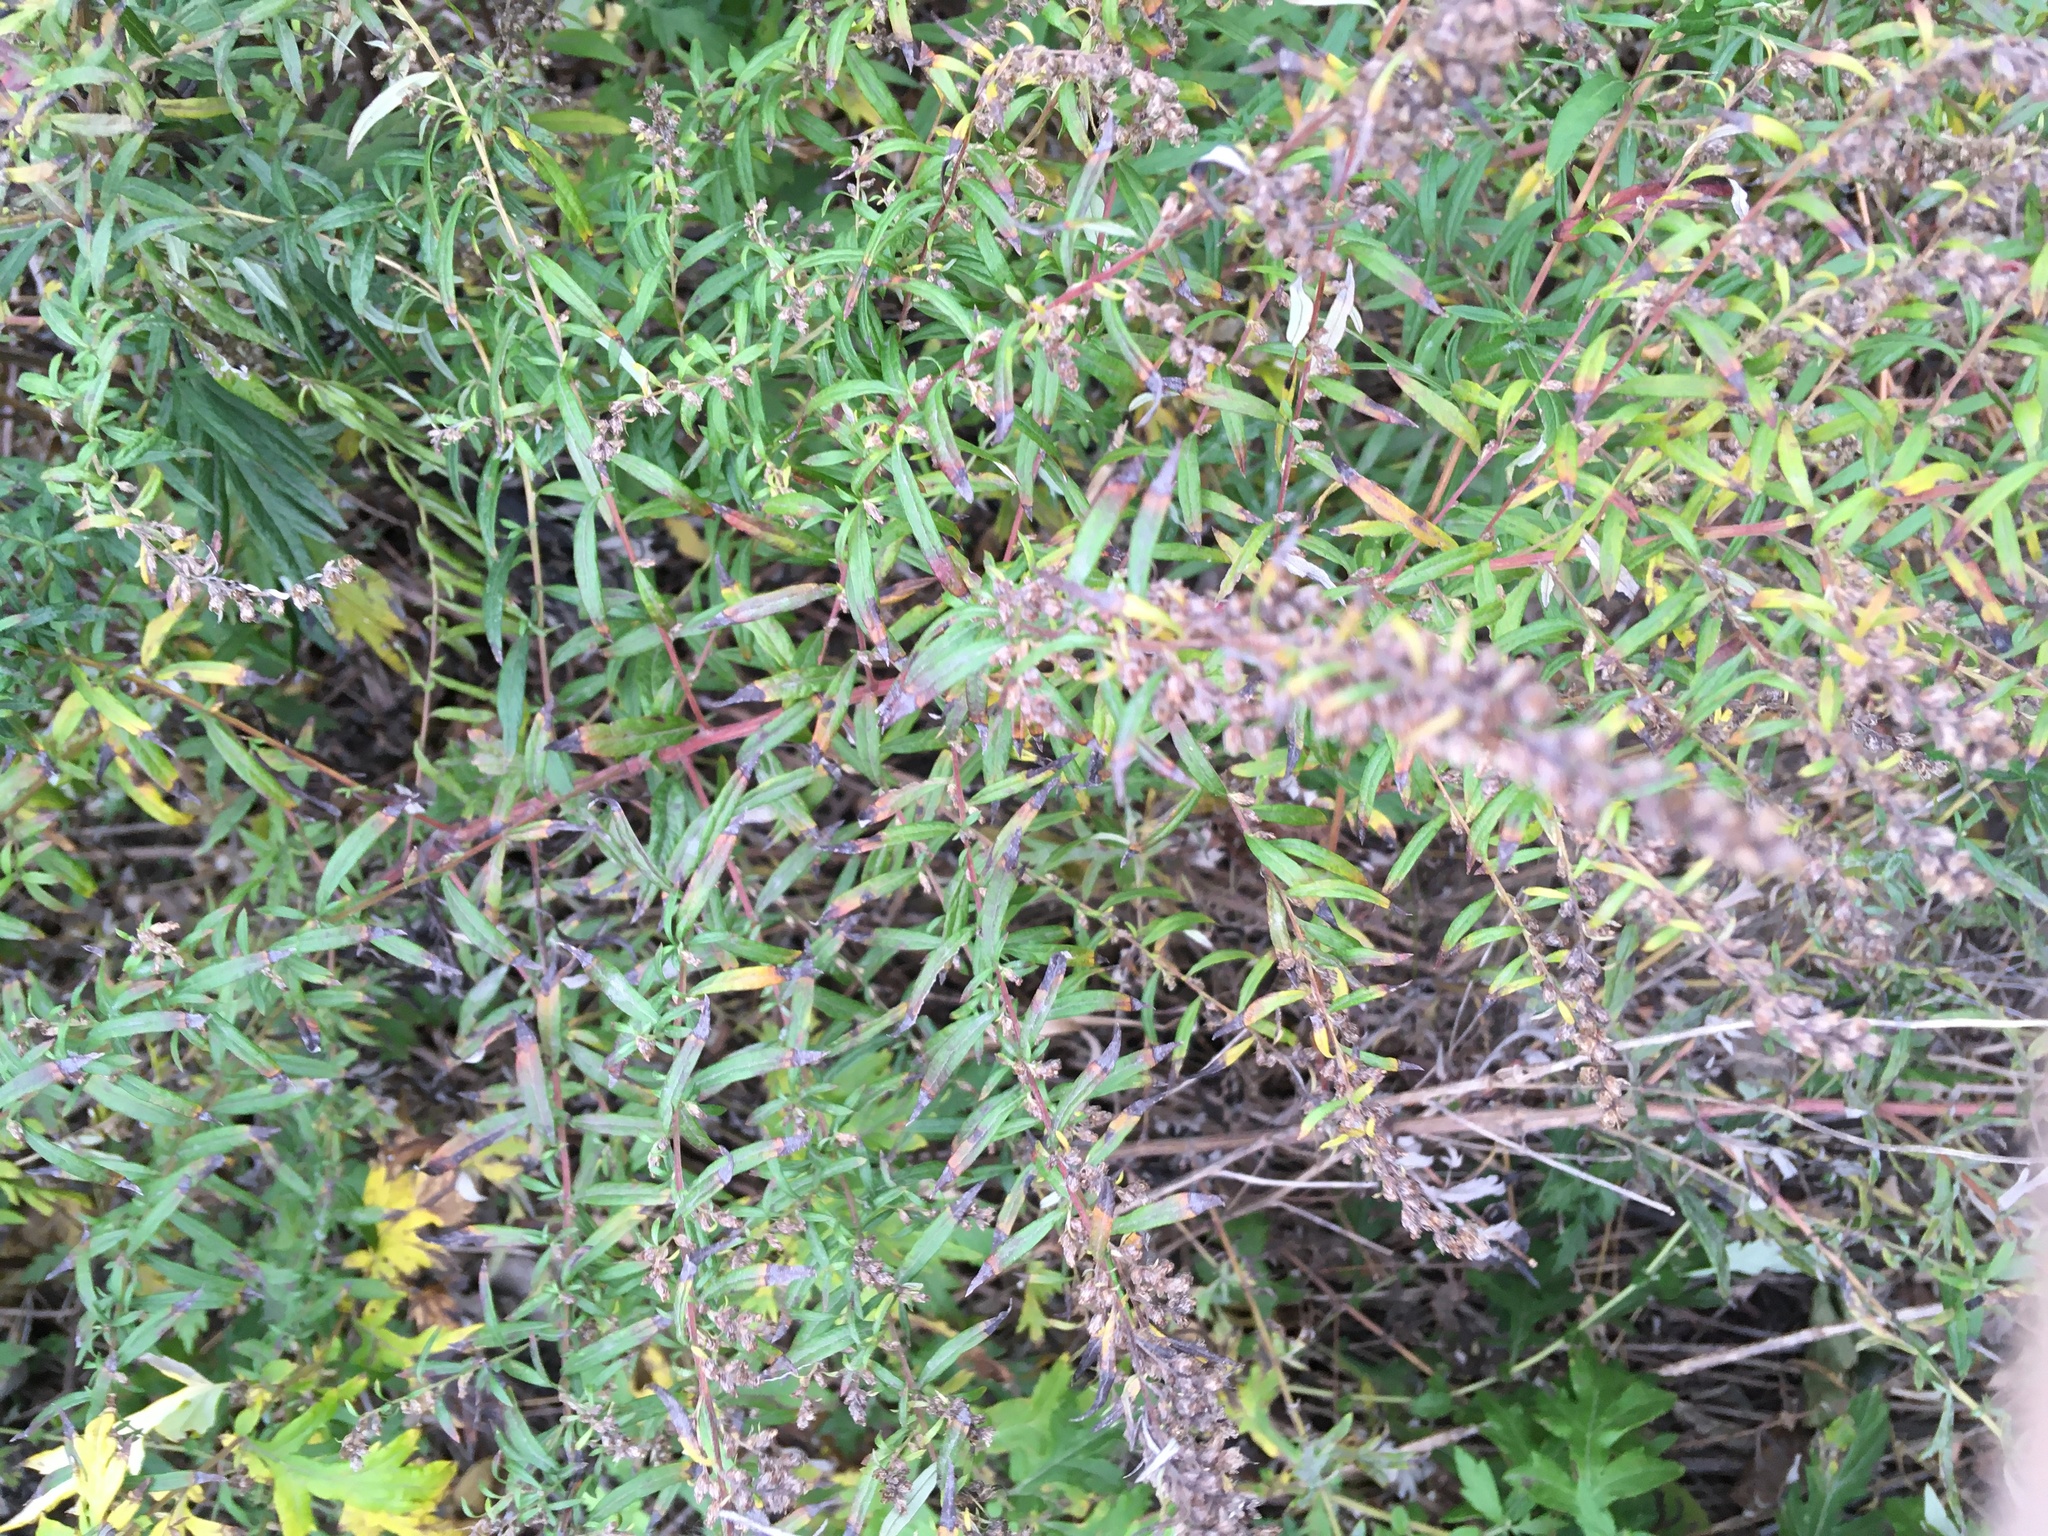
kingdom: Plantae
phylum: Tracheophyta
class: Magnoliopsida
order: Asterales
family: Asteraceae
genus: Artemisia
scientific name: Artemisia vulgaris
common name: Mugwort
